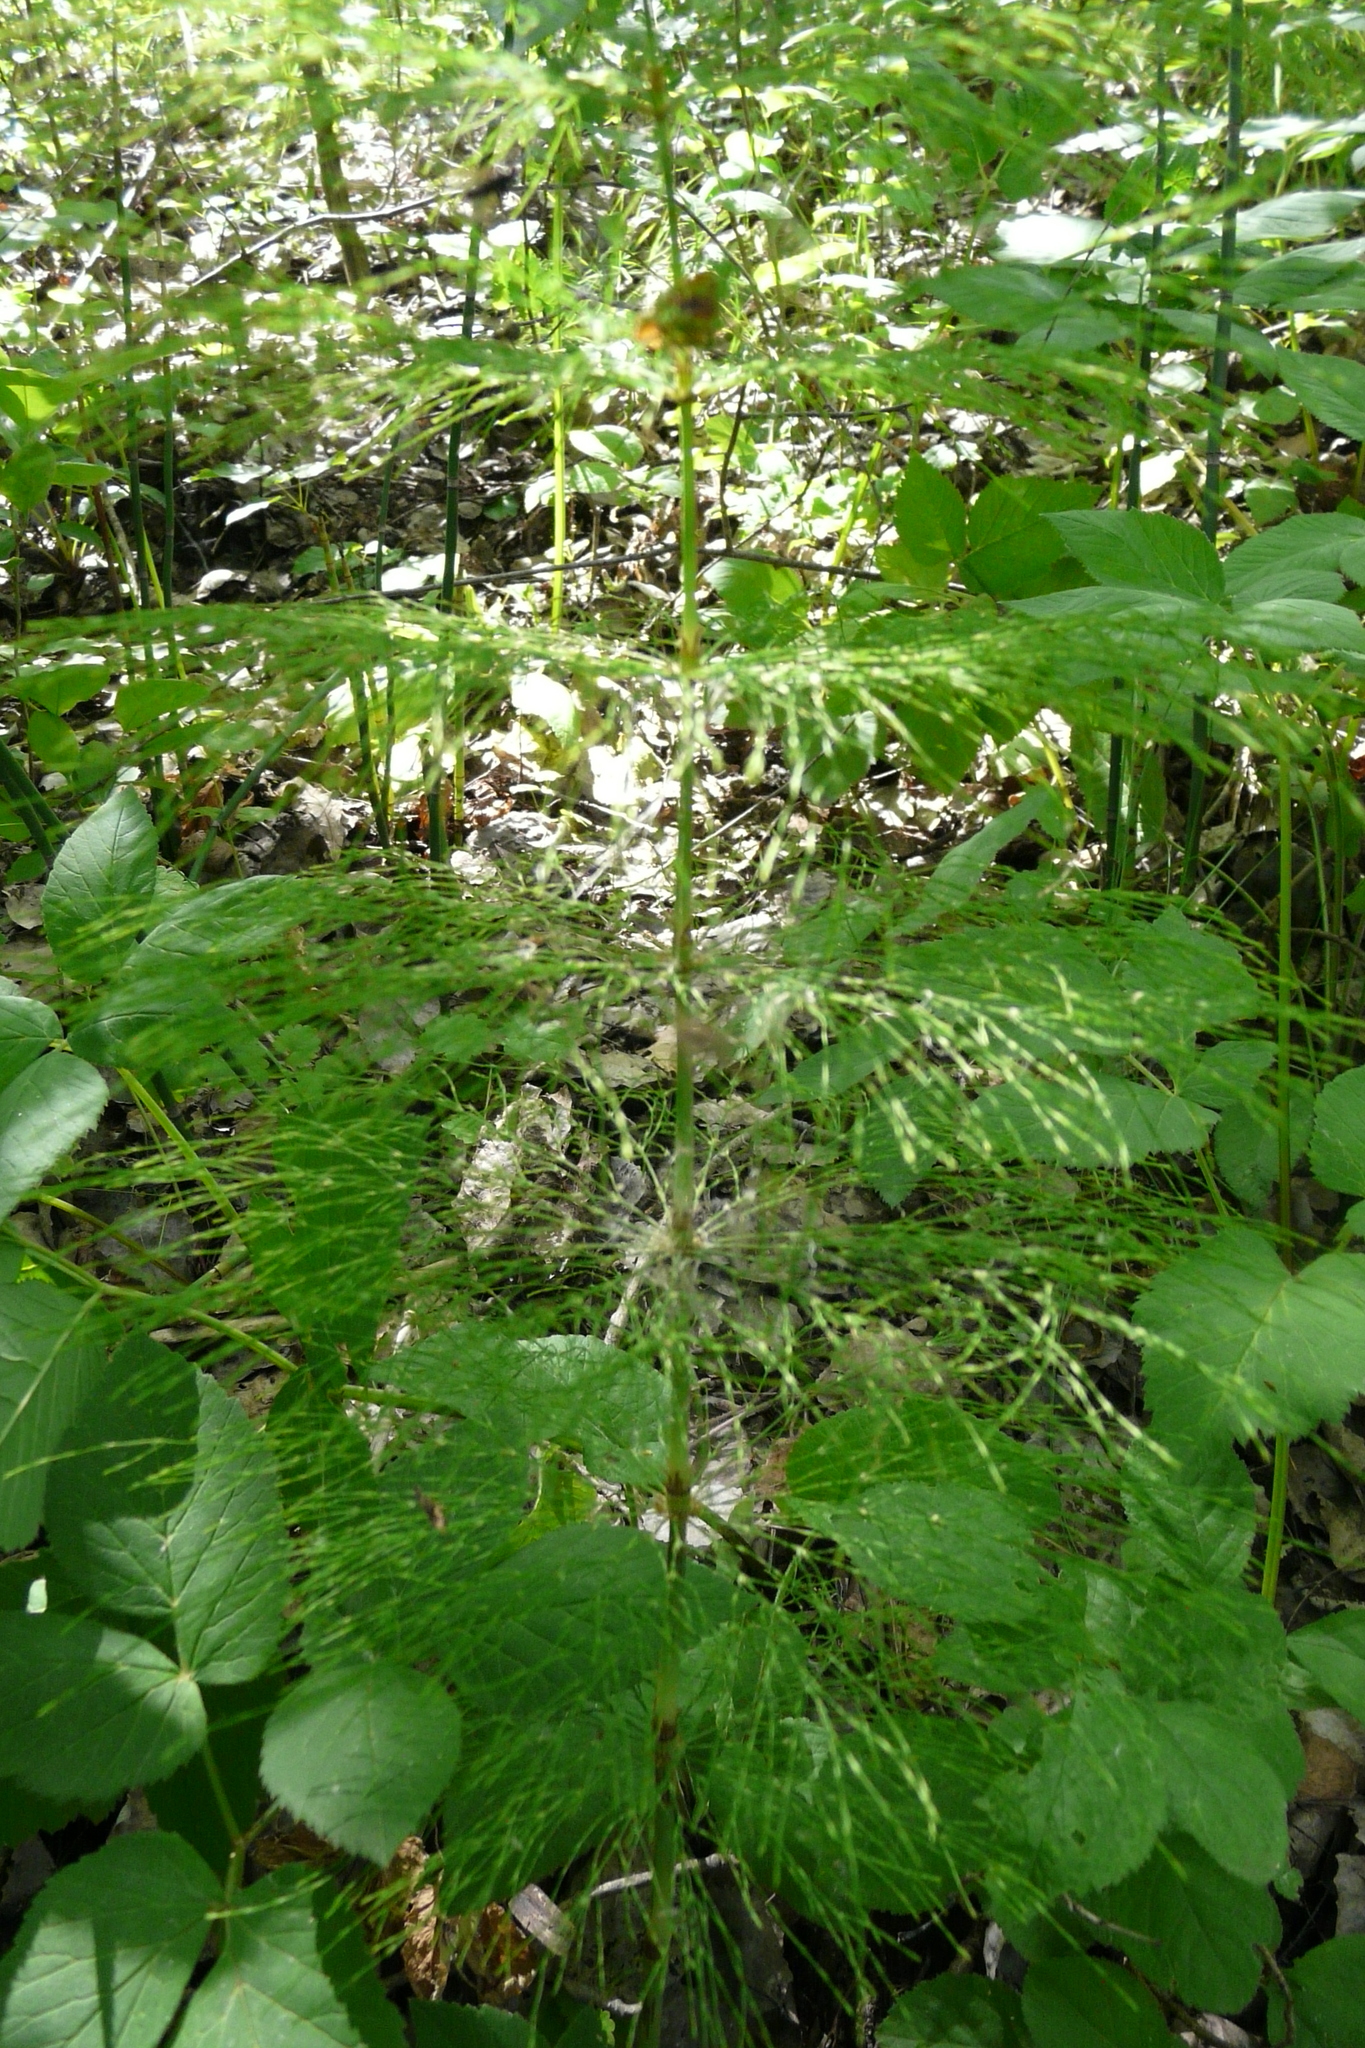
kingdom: Plantae
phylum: Tracheophyta
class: Polypodiopsida
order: Equisetales
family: Equisetaceae
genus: Equisetum
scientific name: Equisetum sylvaticum
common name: Wood horsetail
